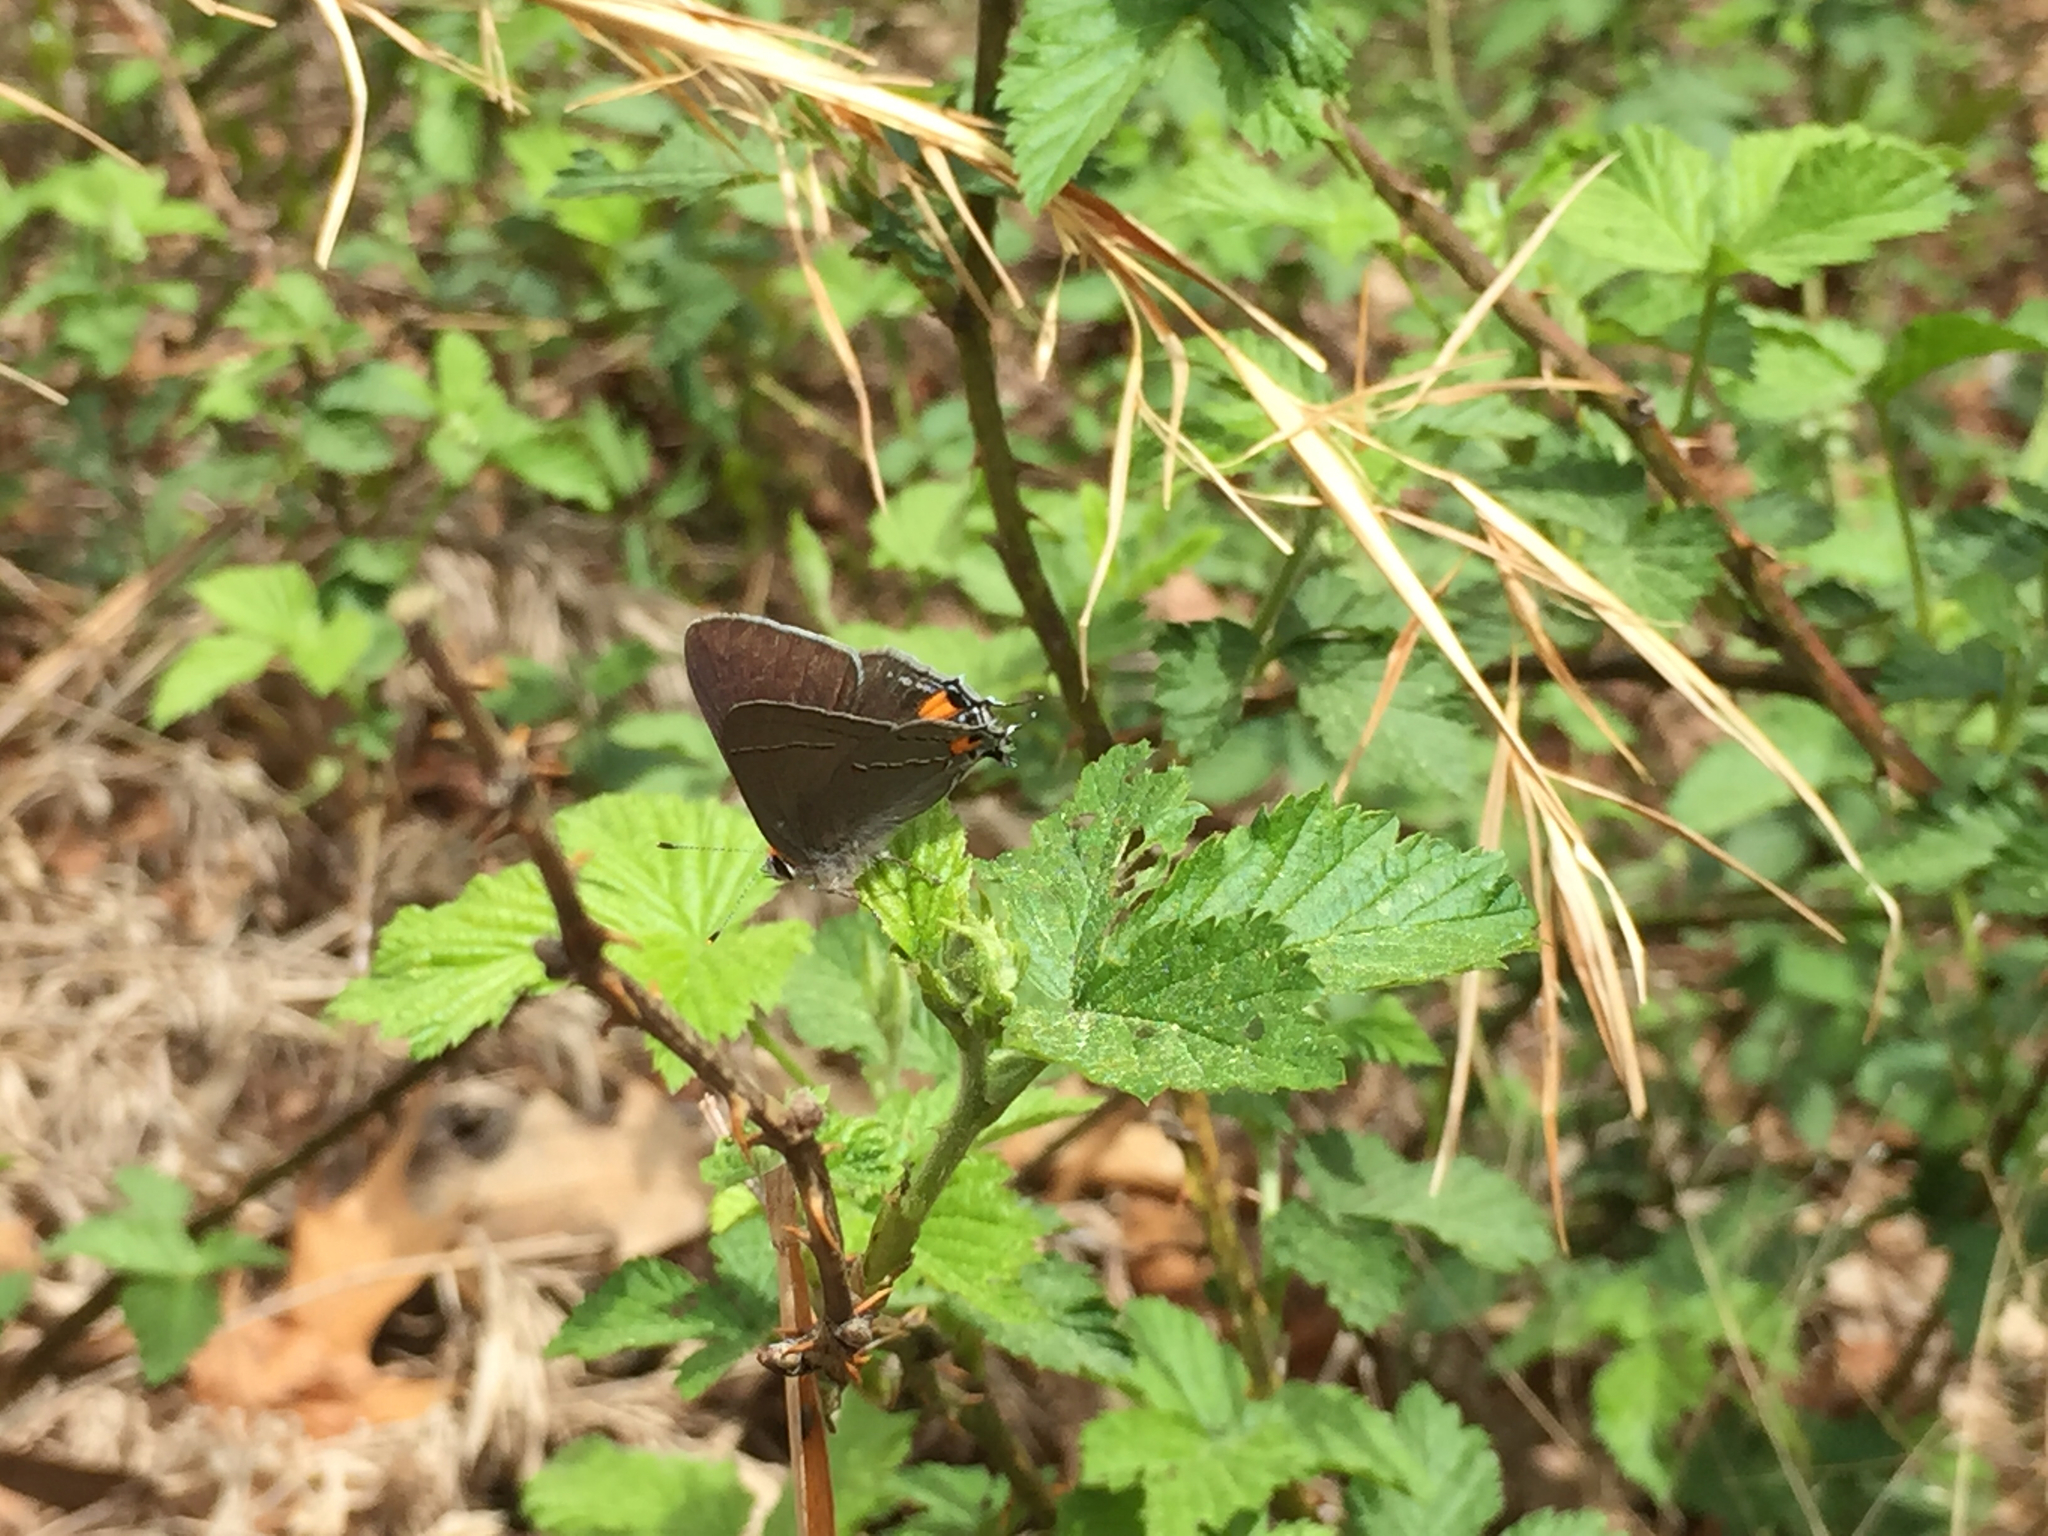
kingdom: Animalia
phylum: Arthropoda
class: Insecta
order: Lepidoptera
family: Lycaenidae
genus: Strymon
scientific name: Strymon melinus
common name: Gray hairstreak
